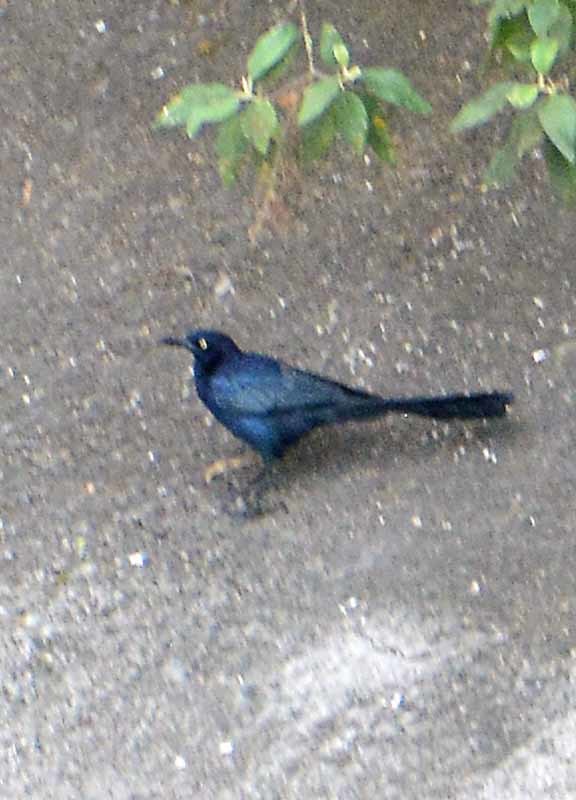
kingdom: Animalia
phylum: Chordata
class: Aves
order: Passeriformes
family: Icteridae
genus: Quiscalus
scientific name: Quiscalus mexicanus
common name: Great-tailed grackle
